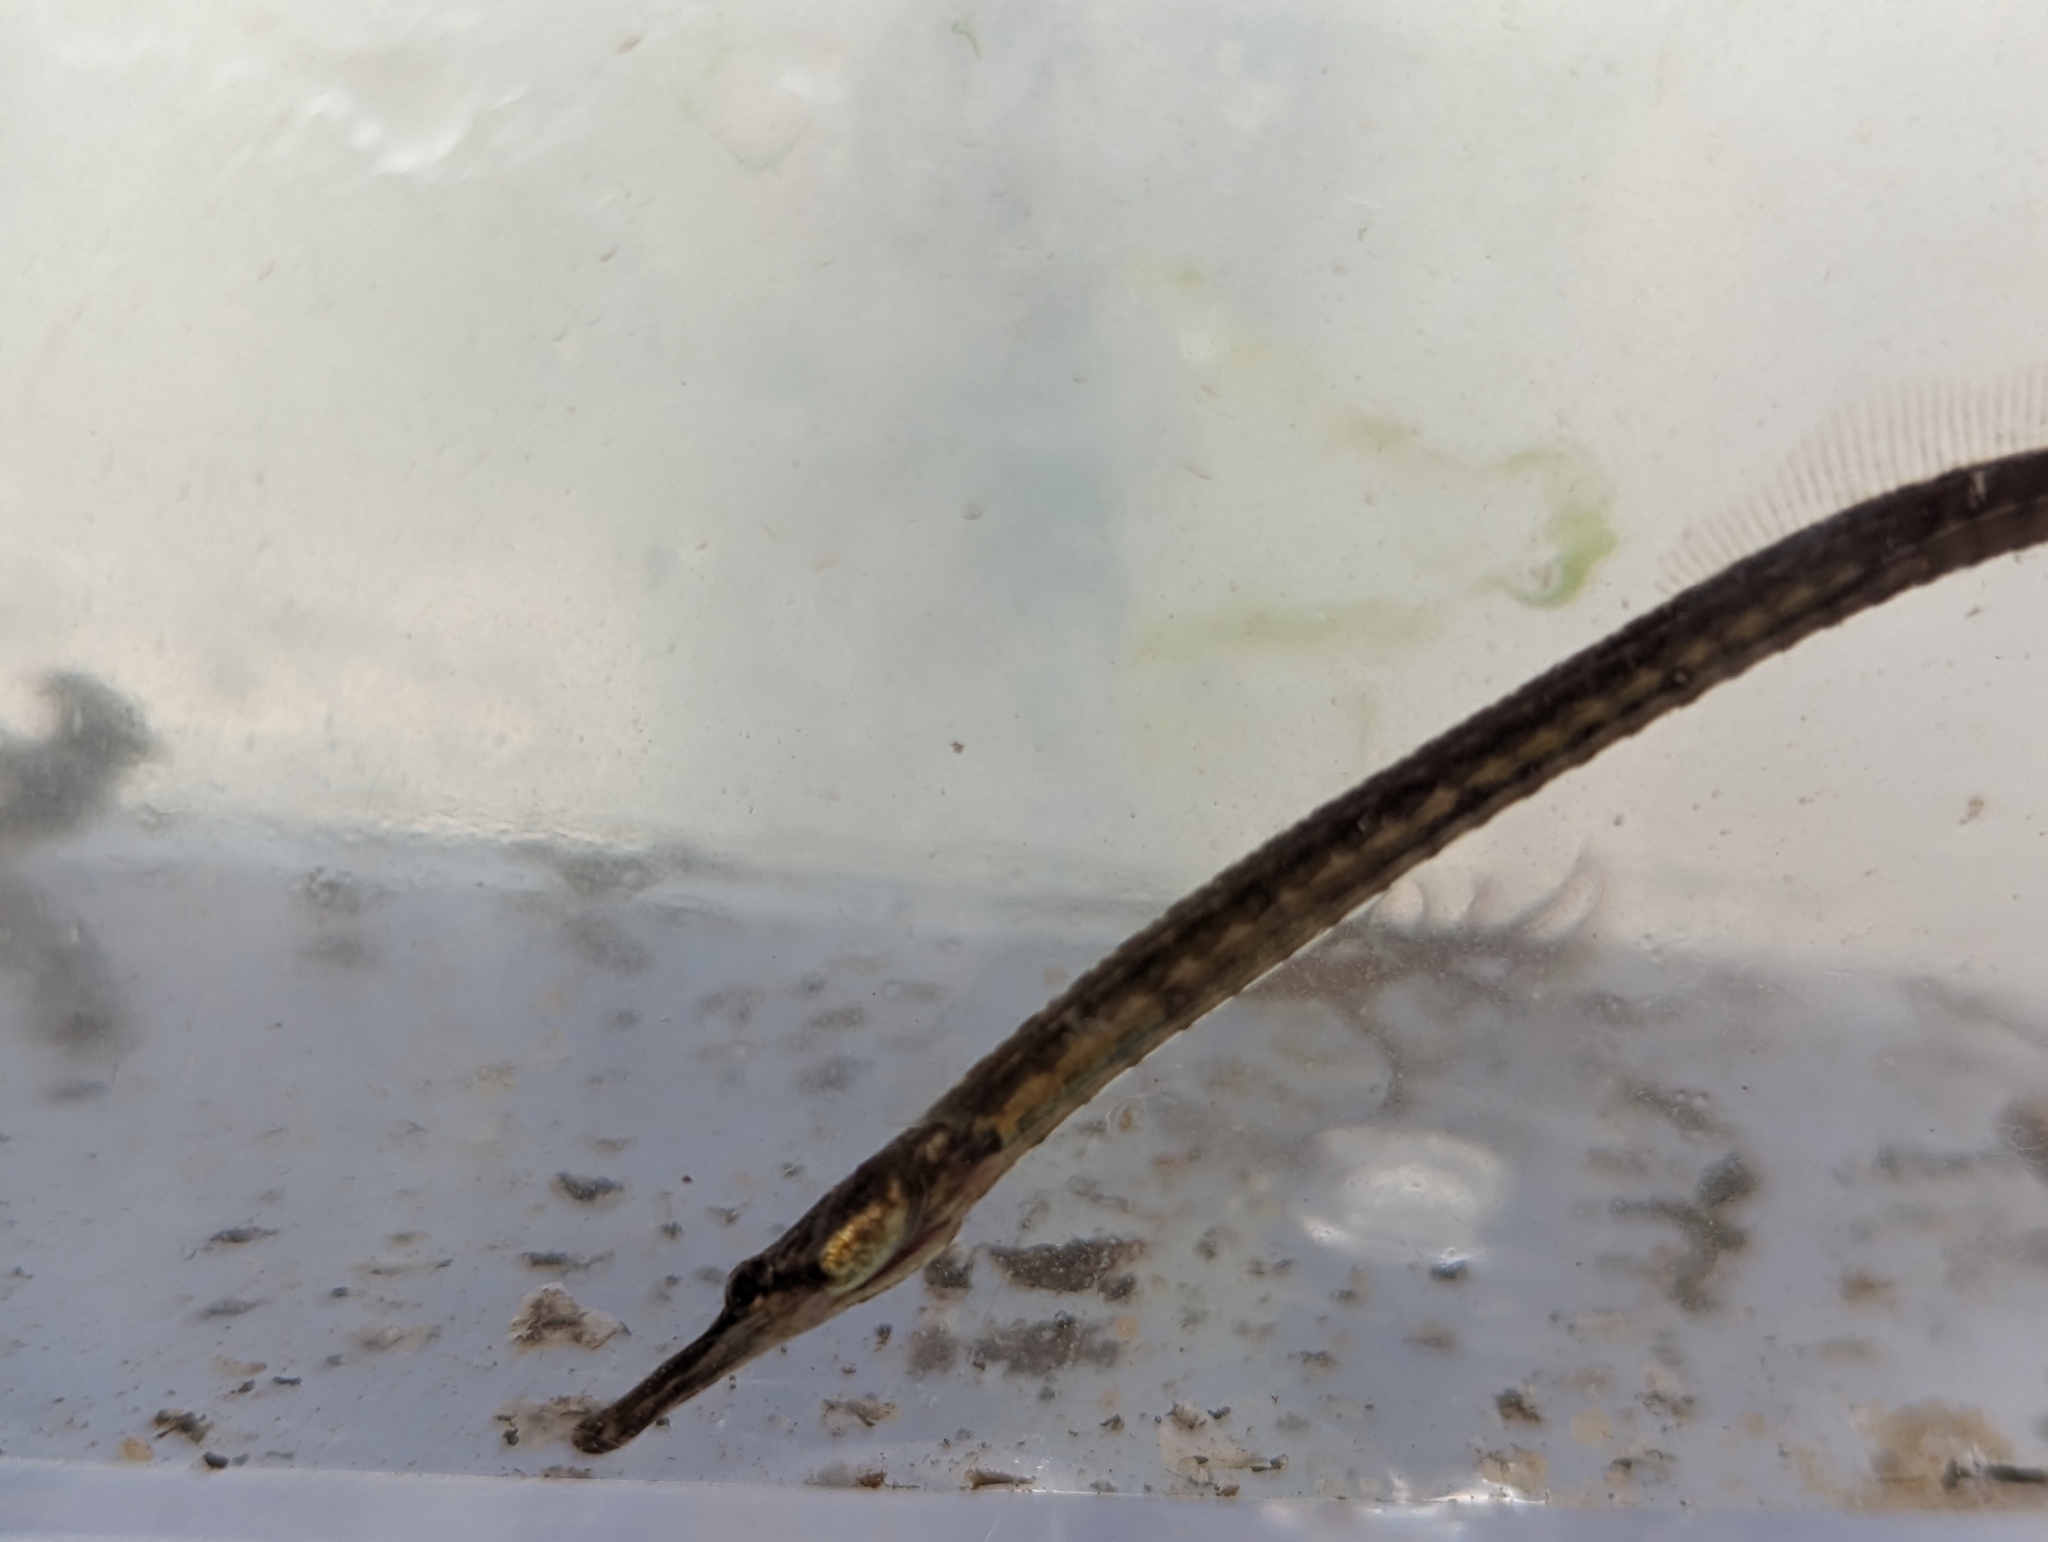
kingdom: Animalia
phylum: Chordata
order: Syngnathiformes
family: Syngnathidae
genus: Syngnathus
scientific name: Syngnathus fuscus
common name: Northern pipefish
